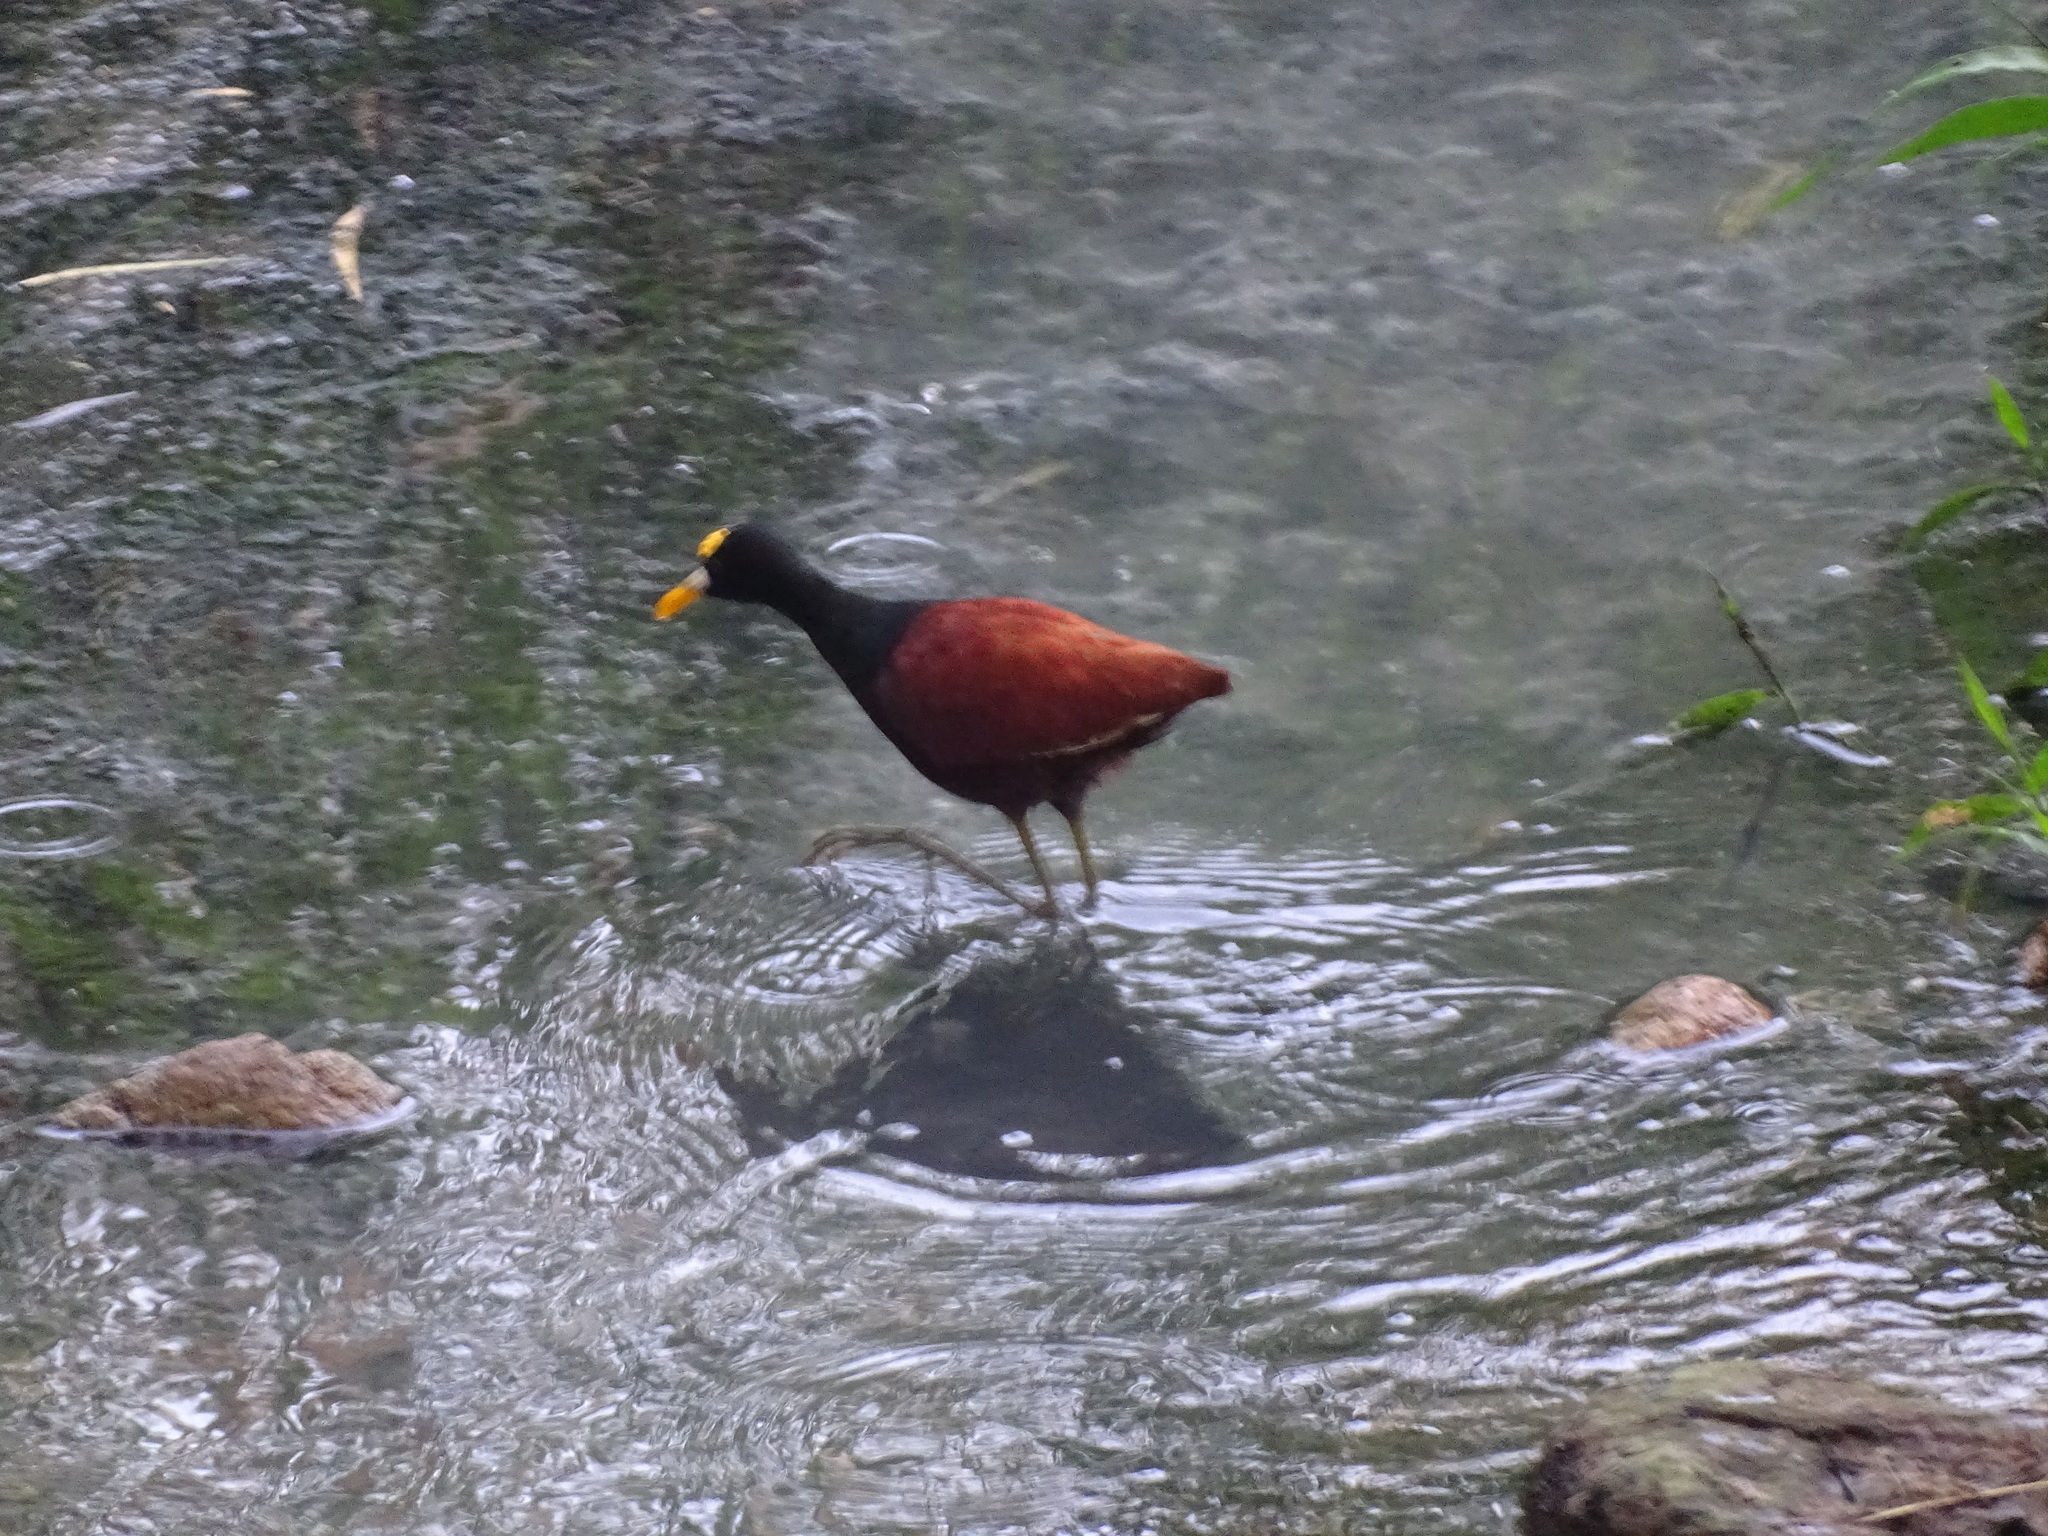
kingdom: Animalia
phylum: Chordata
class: Aves
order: Charadriiformes
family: Jacanidae
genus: Jacana
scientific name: Jacana spinosa
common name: Northern jacana
